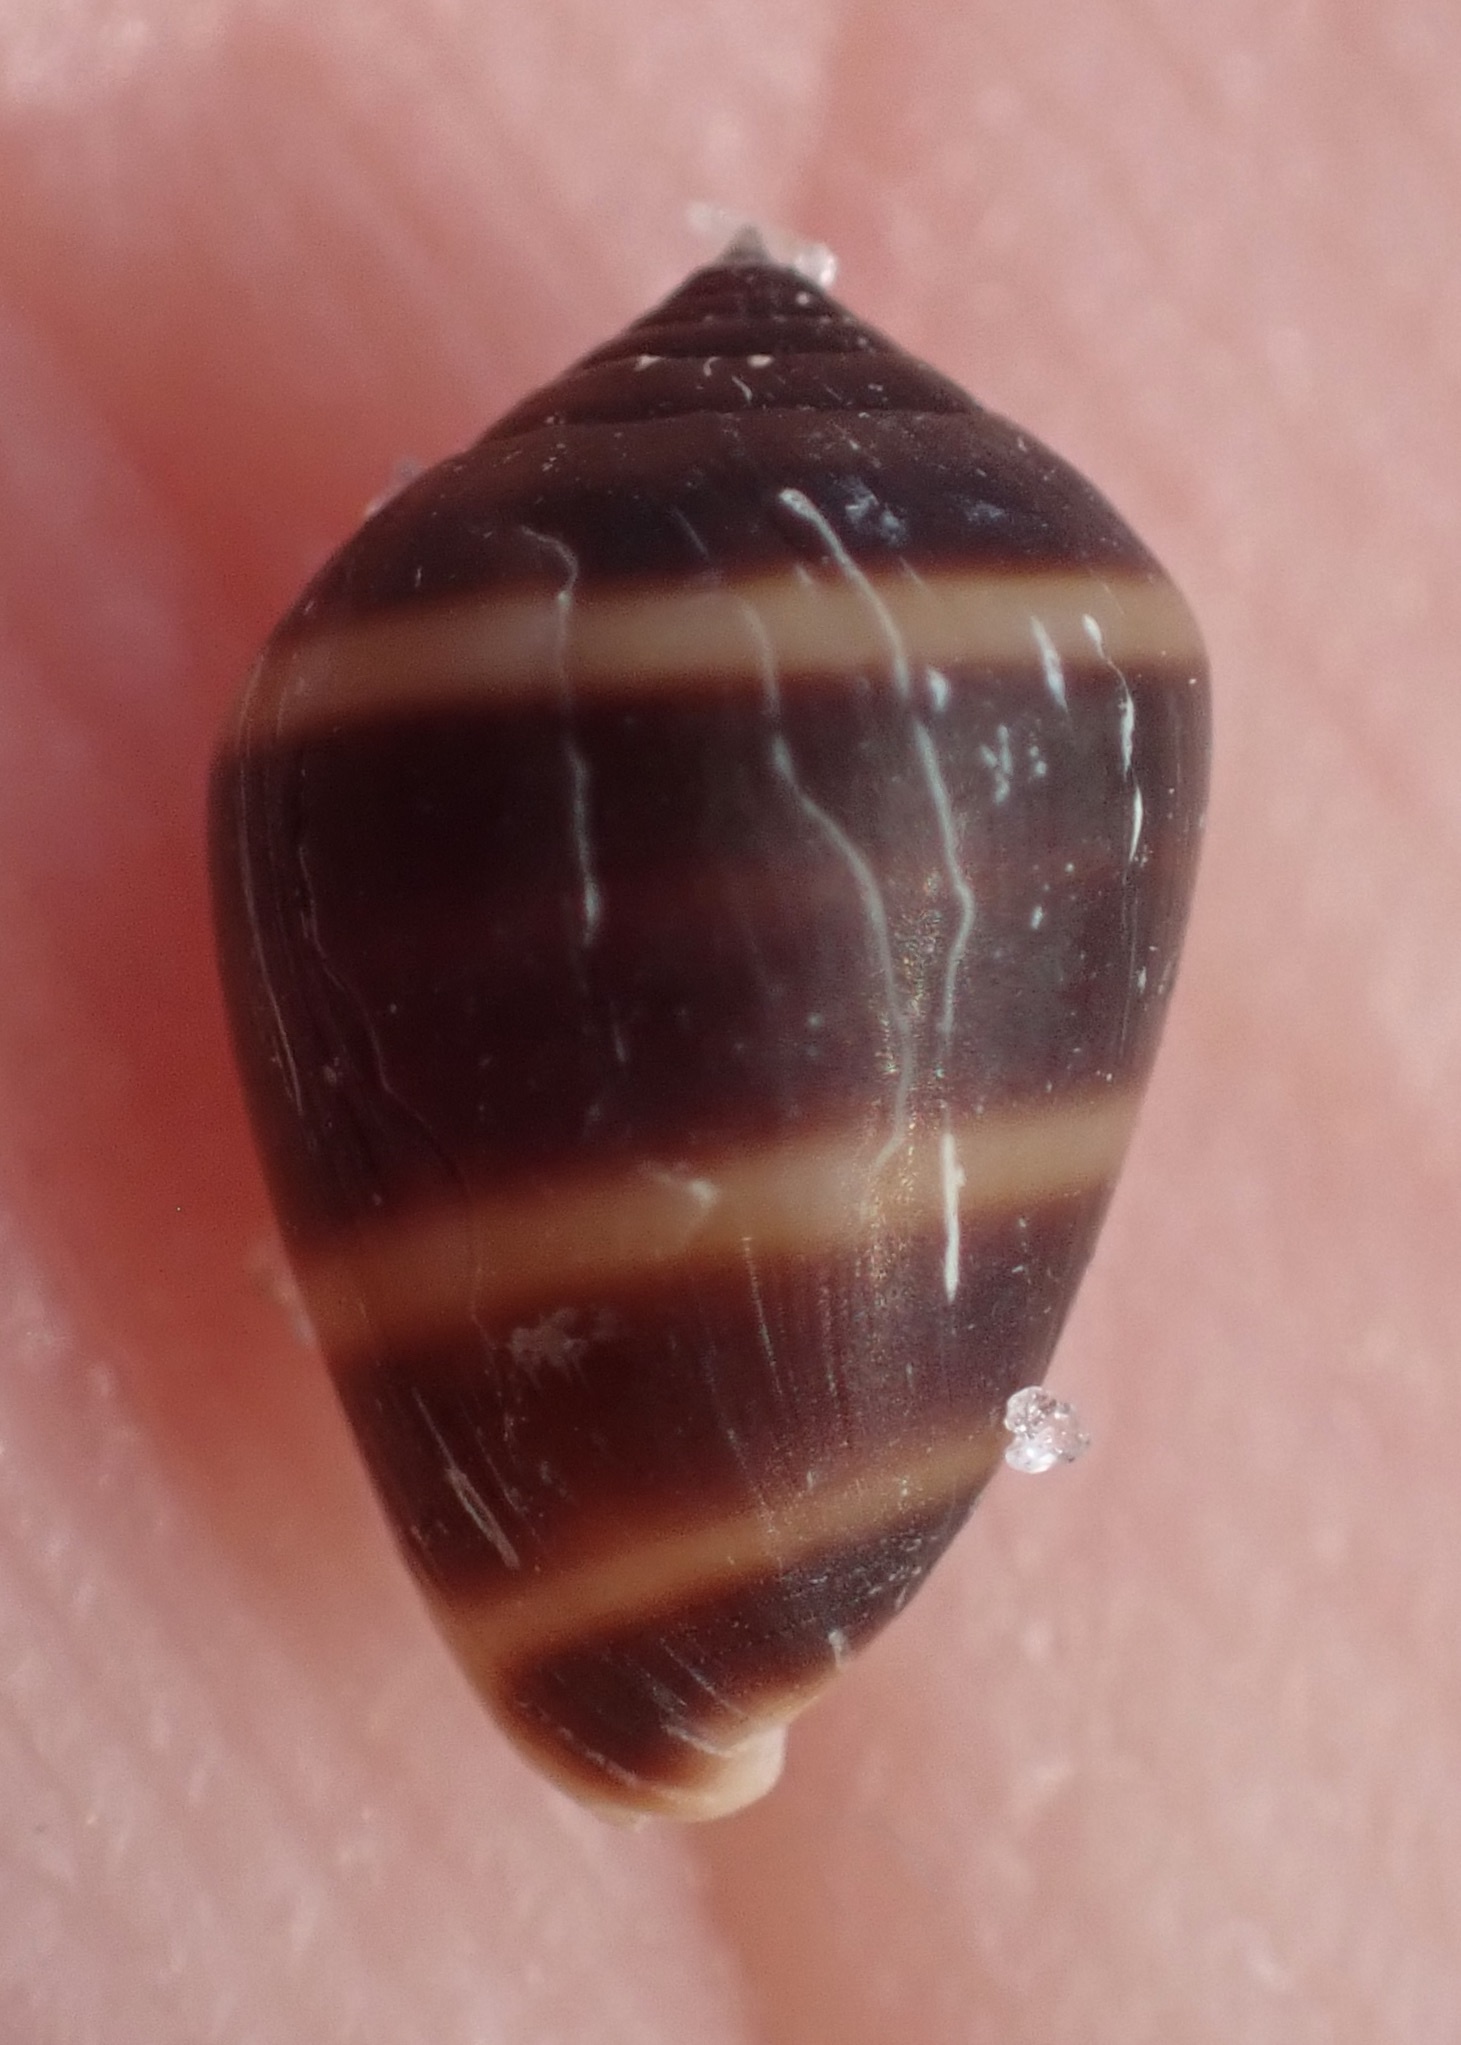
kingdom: Animalia
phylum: Mollusca
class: Gastropoda
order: Ellobiida
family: Ellobiidae
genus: Melampus
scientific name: Melampus coffea
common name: Coffee bean snail
